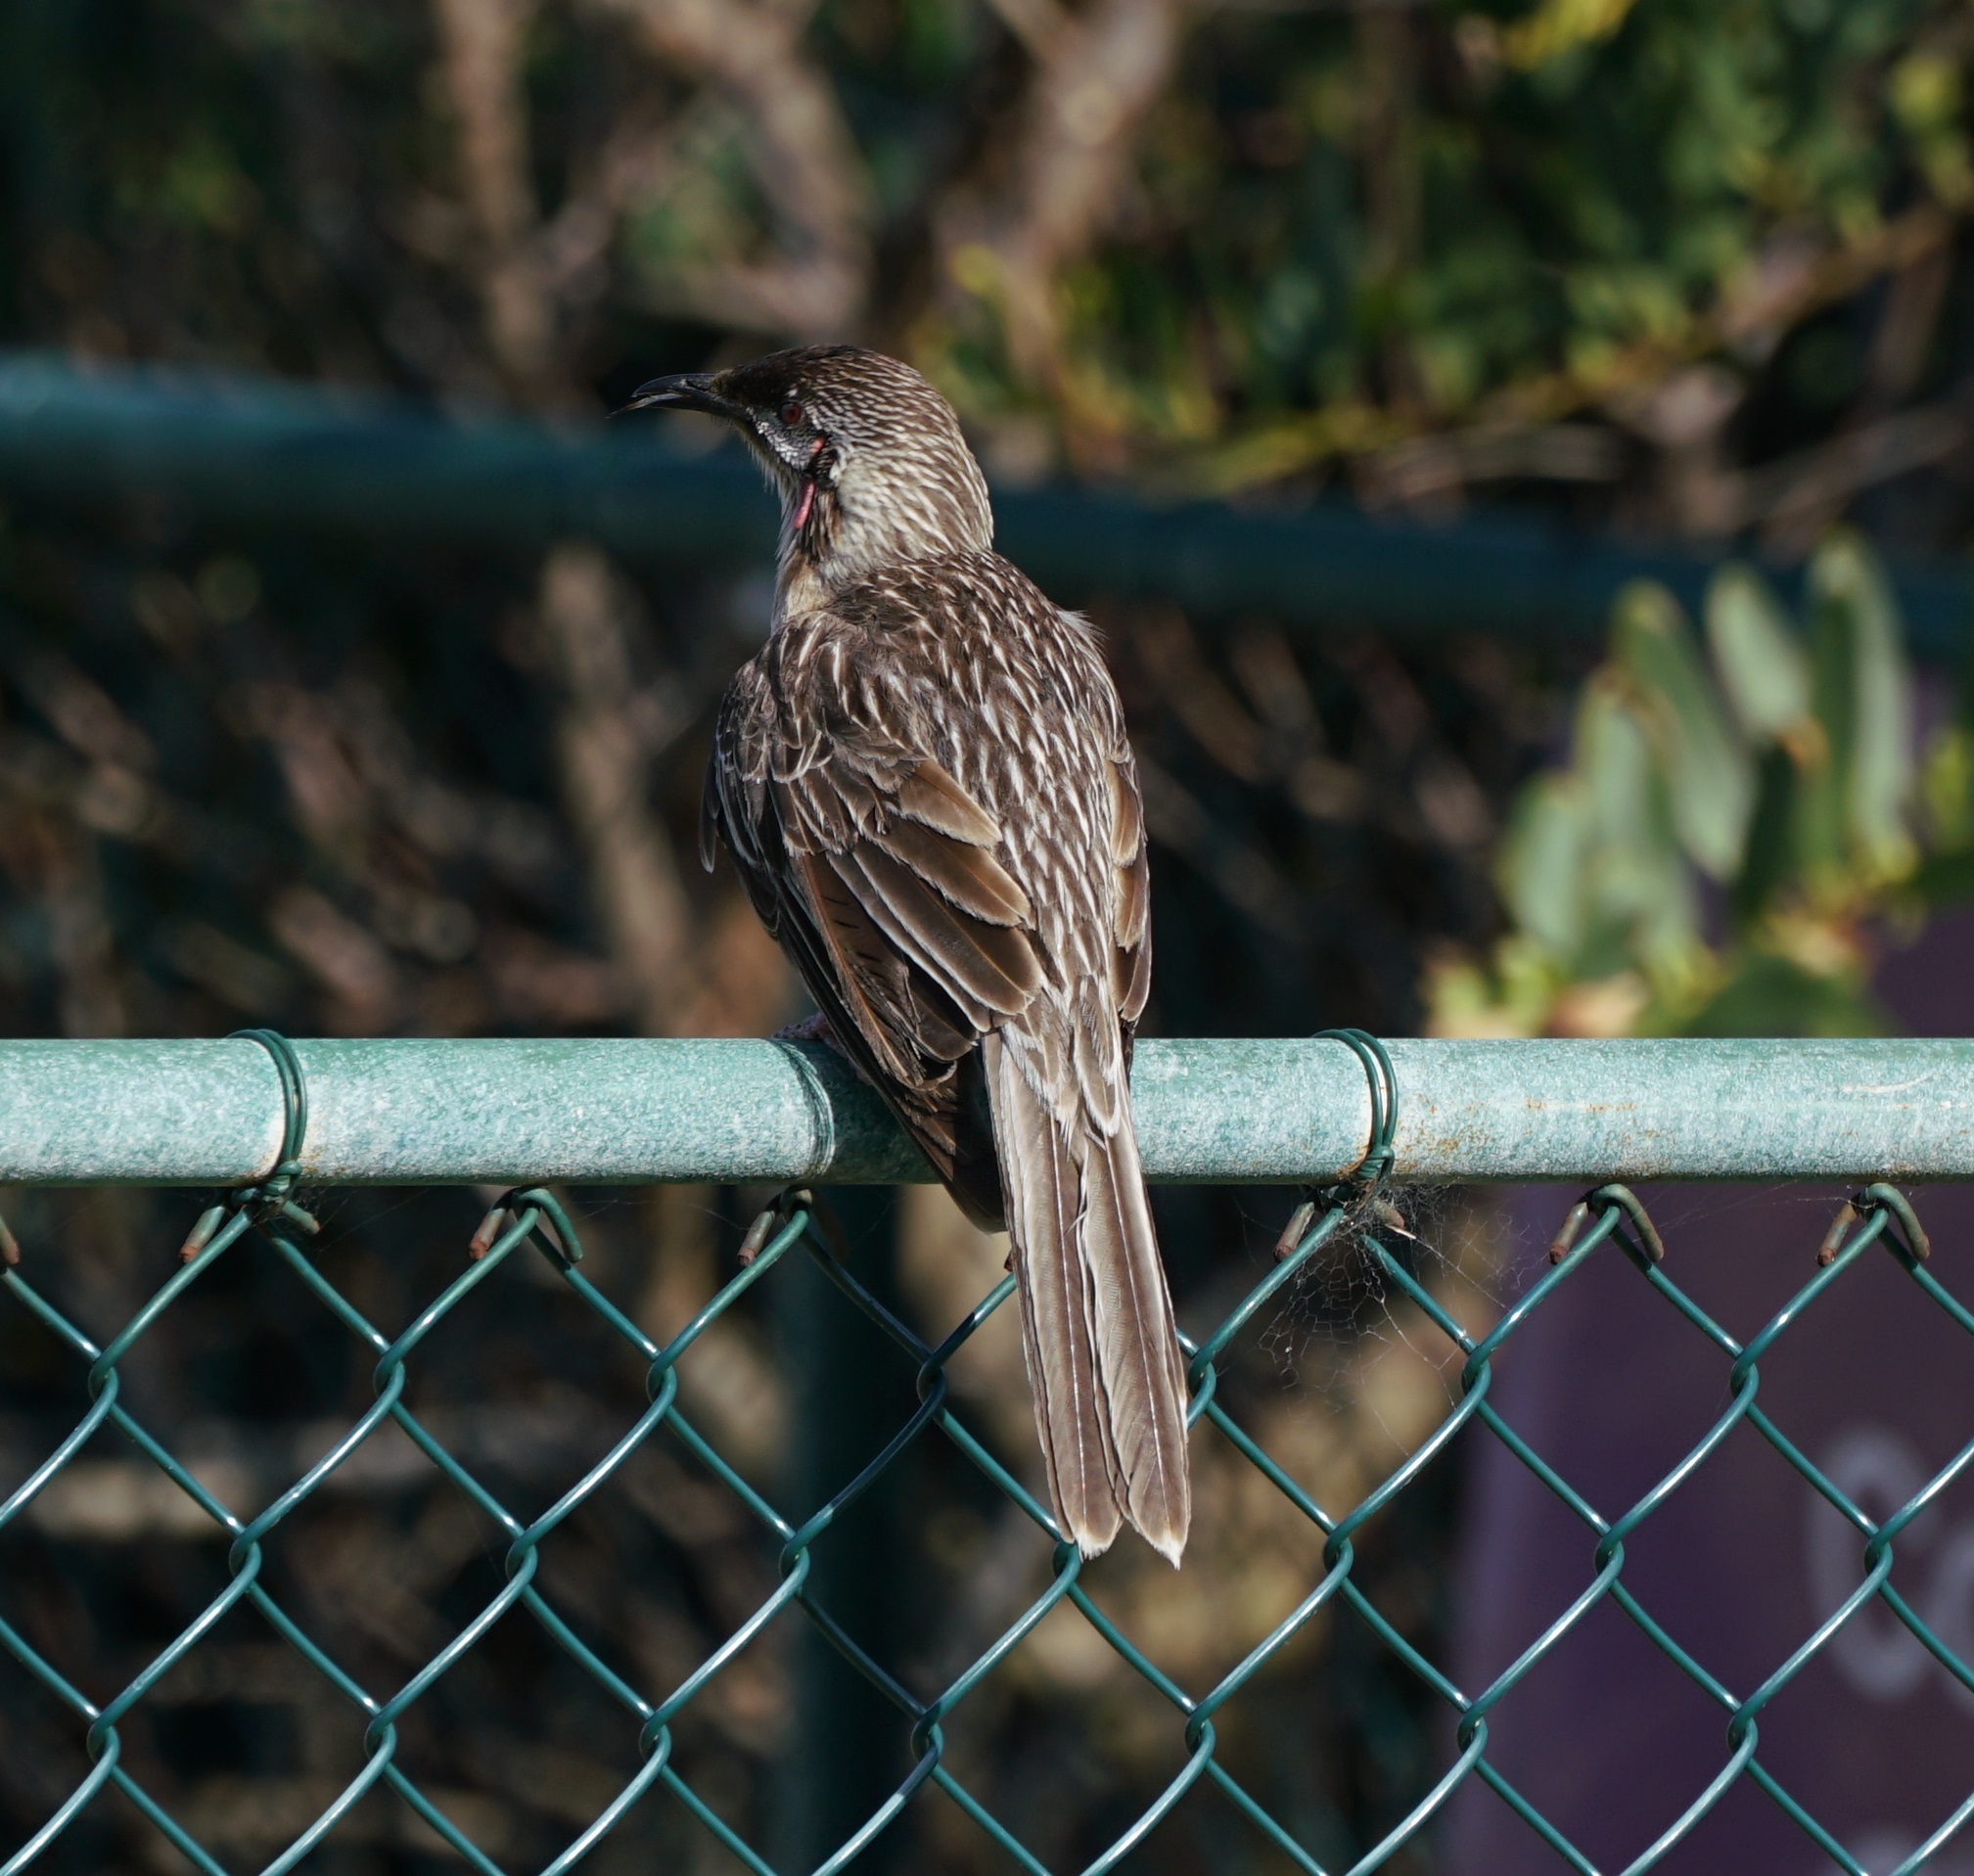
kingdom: Animalia
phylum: Chordata
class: Aves
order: Passeriformes
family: Meliphagidae
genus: Anthochaera
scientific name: Anthochaera carunculata
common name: Red wattlebird
